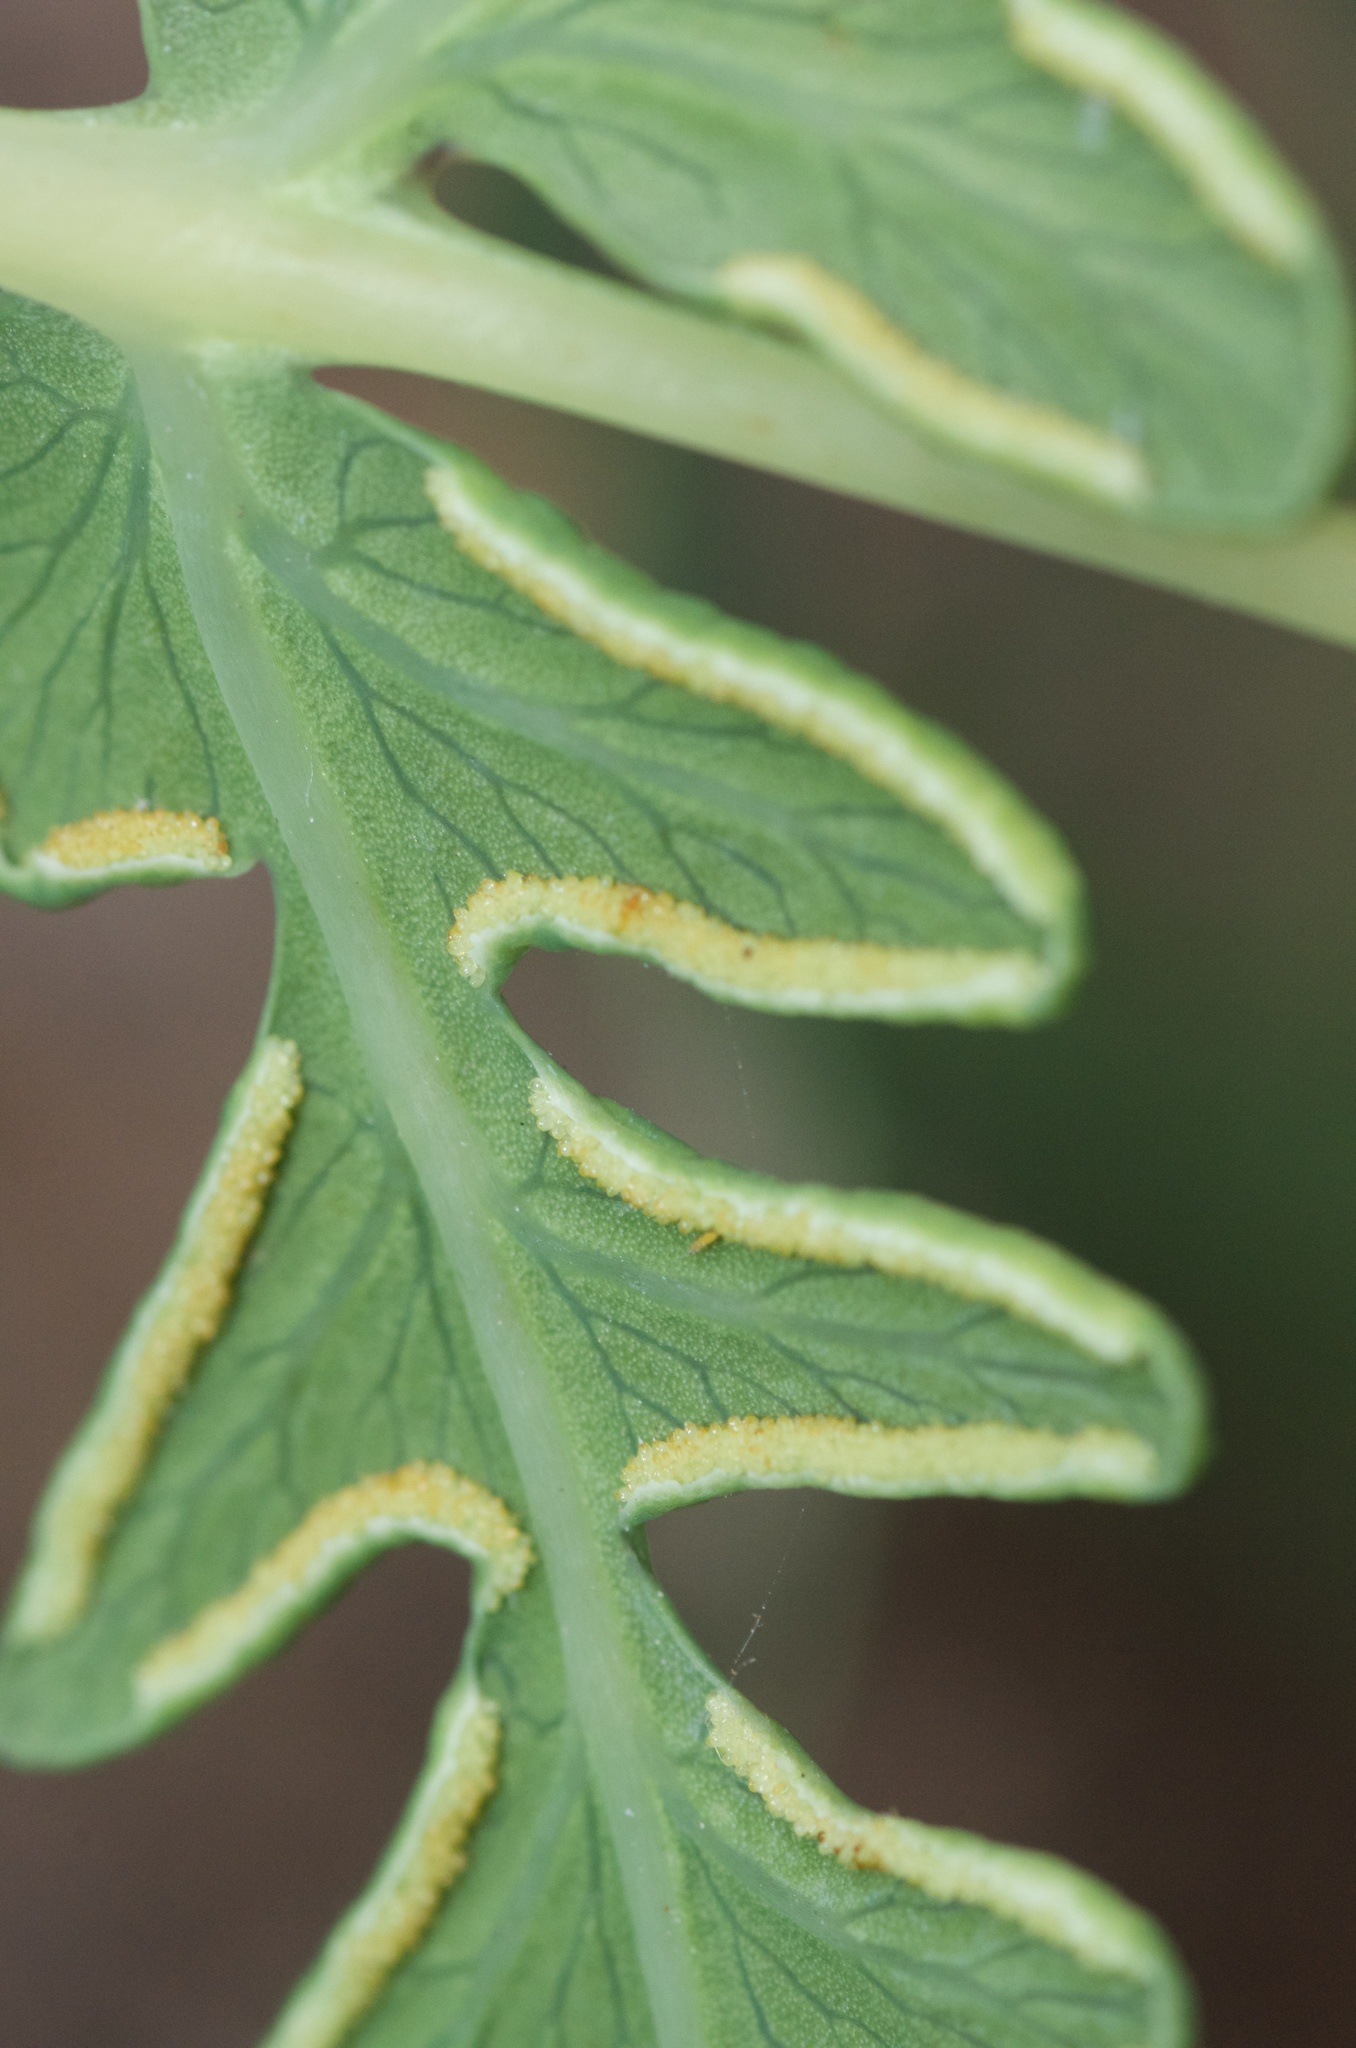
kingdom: Plantae
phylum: Tracheophyta
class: Polypodiopsida
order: Polypodiales
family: Dennstaedtiaceae
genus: Histiopteris
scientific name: Histiopteris incisa
